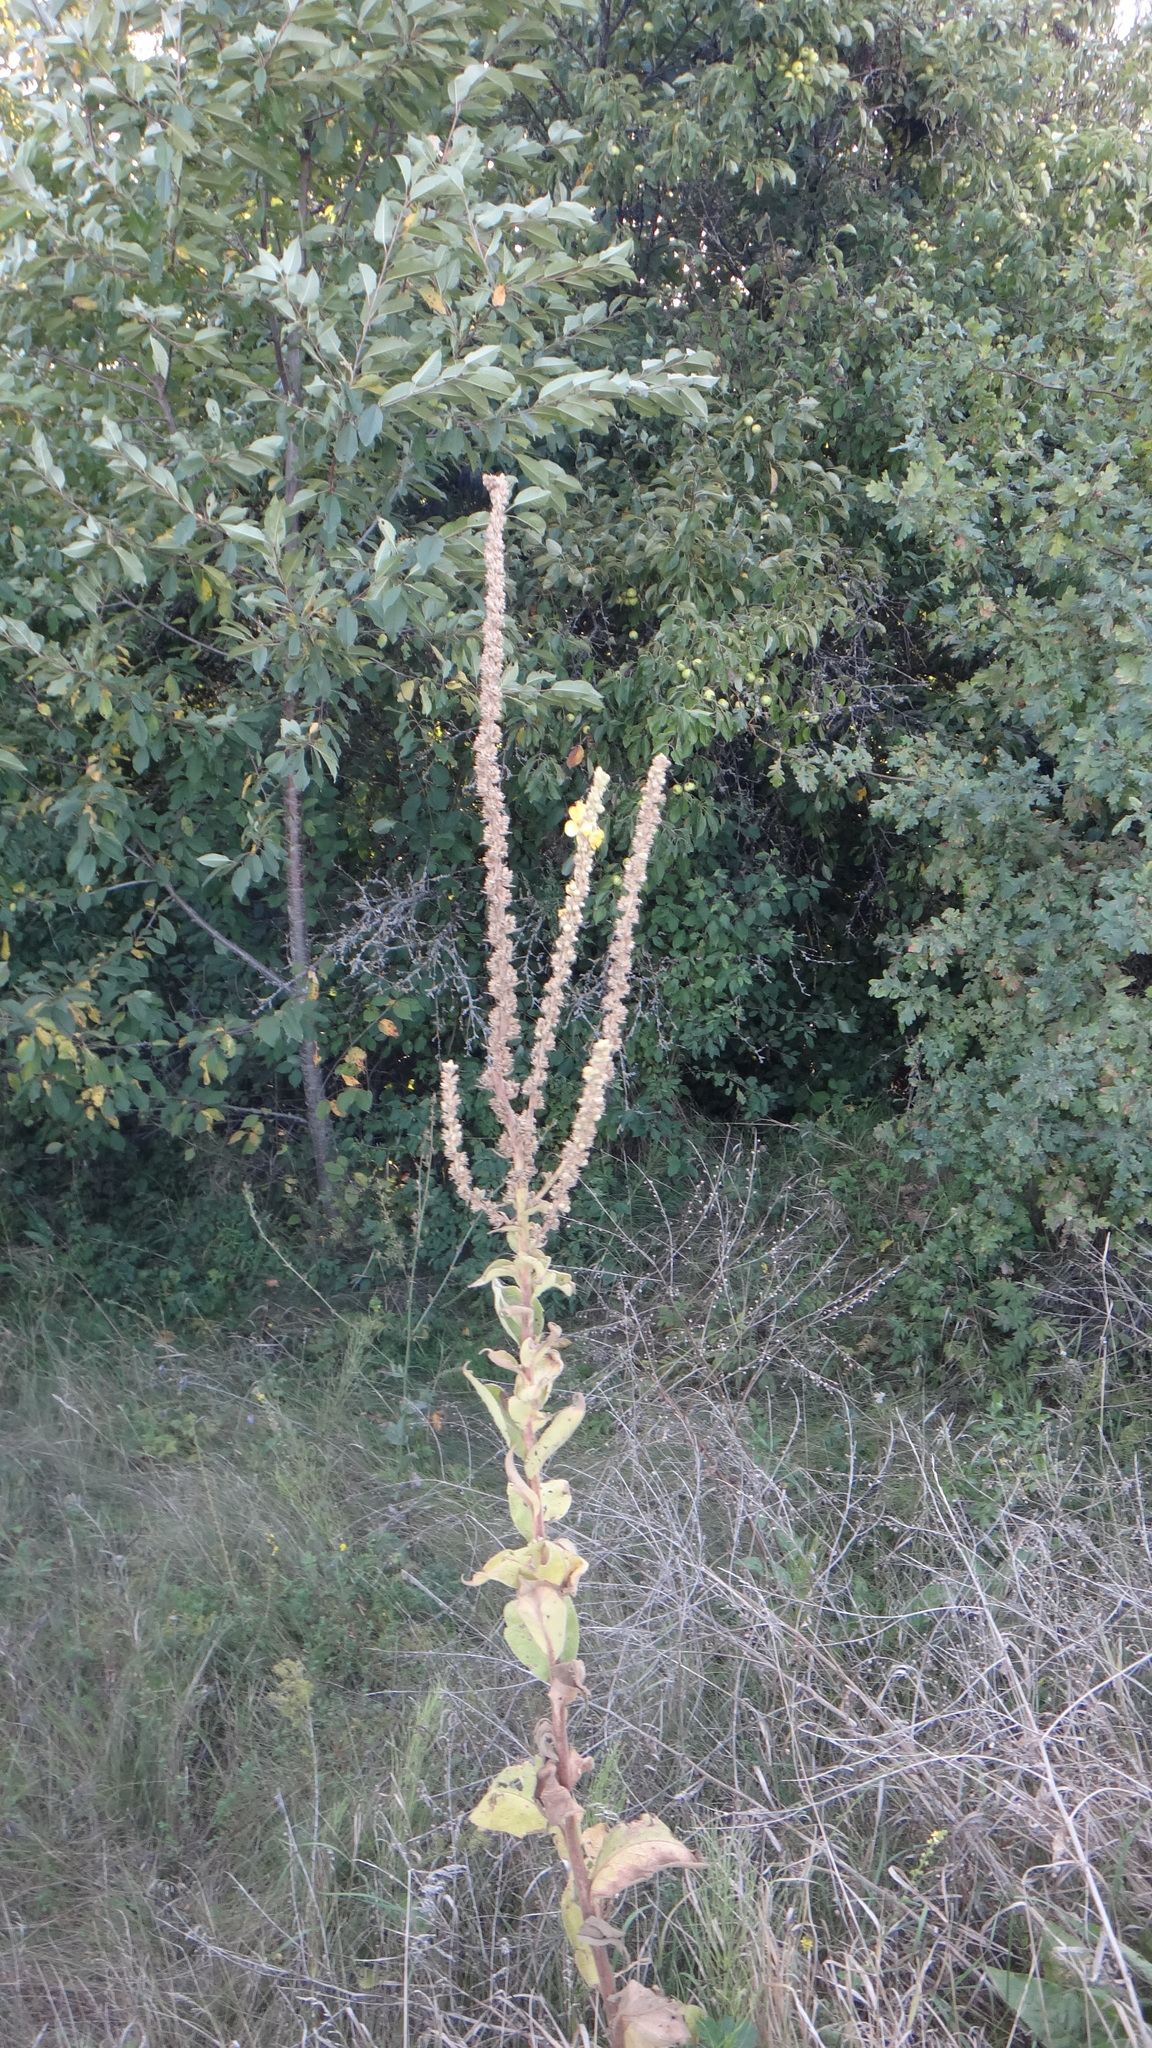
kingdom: Plantae
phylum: Tracheophyta
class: Magnoliopsida
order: Lamiales
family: Scrophulariaceae
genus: Verbascum
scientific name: Verbascum phlomoides
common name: Orange mullein
